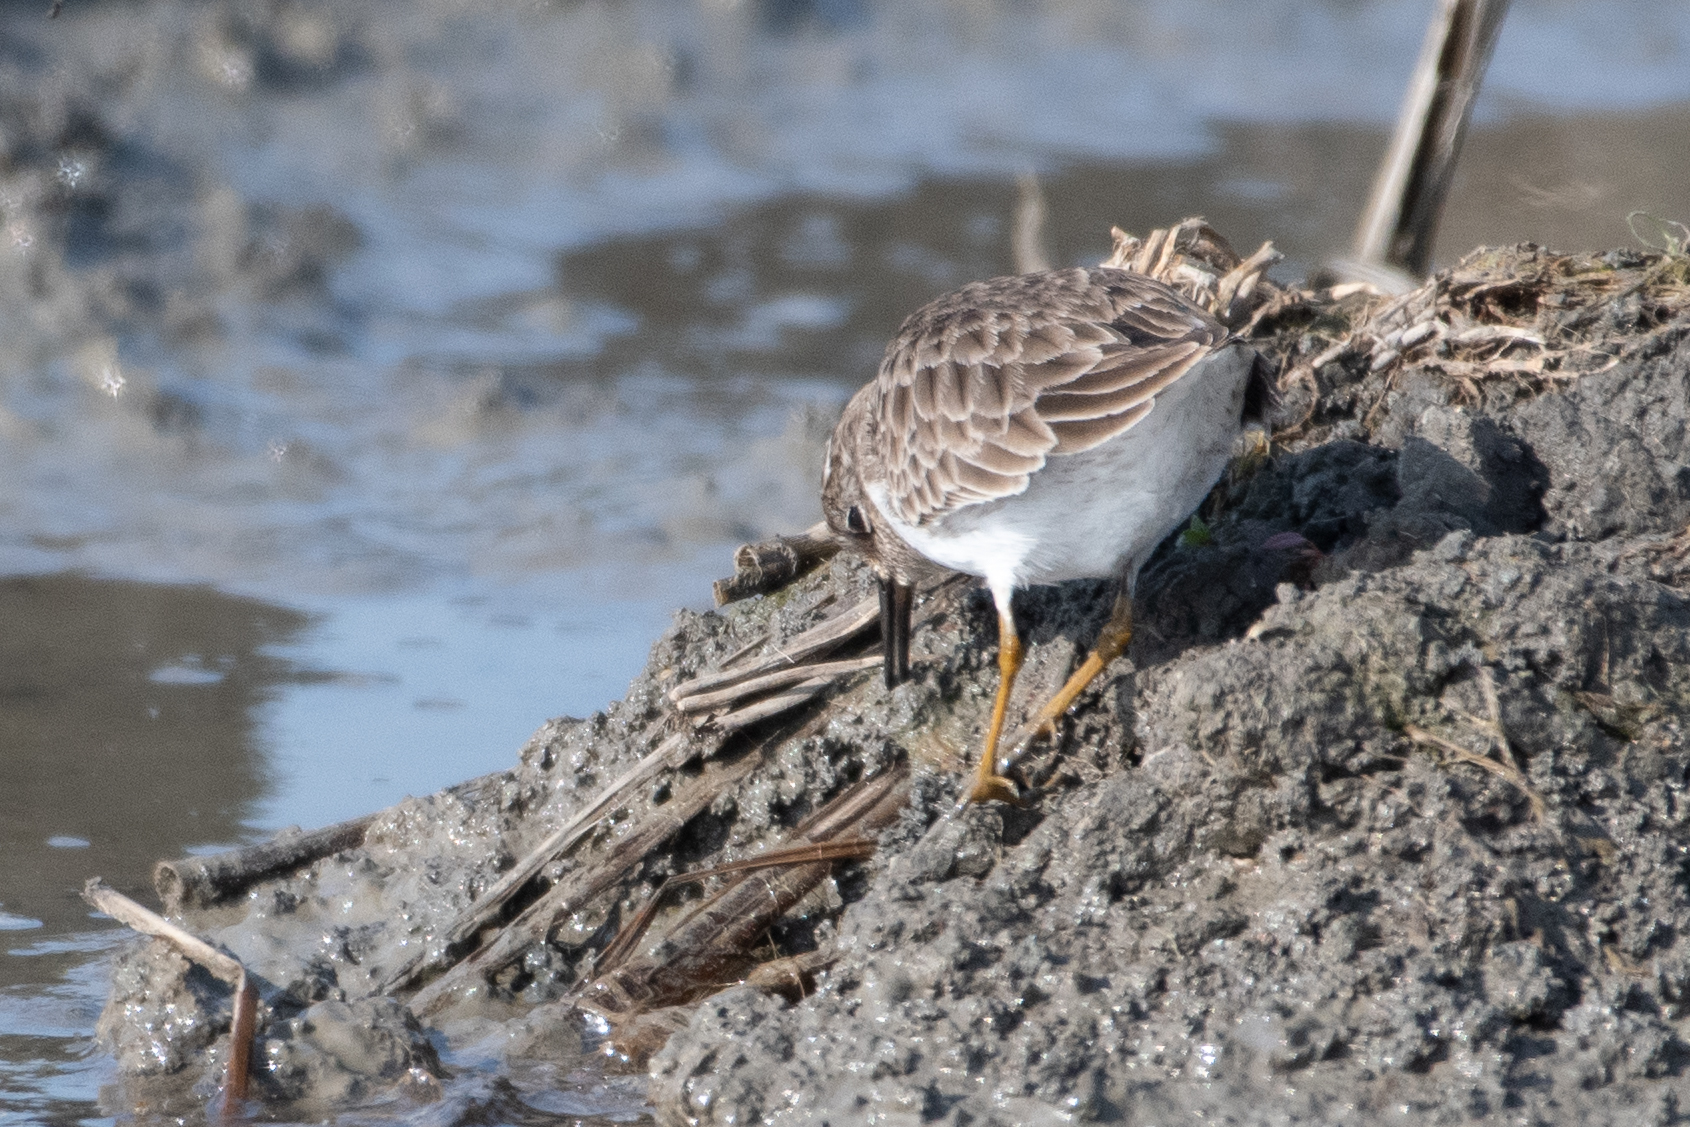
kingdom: Animalia
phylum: Chordata
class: Aves
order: Charadriiformes
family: Scolopacidae
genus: Calidris
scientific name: Calidris minutilla
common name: Least sandpiper
